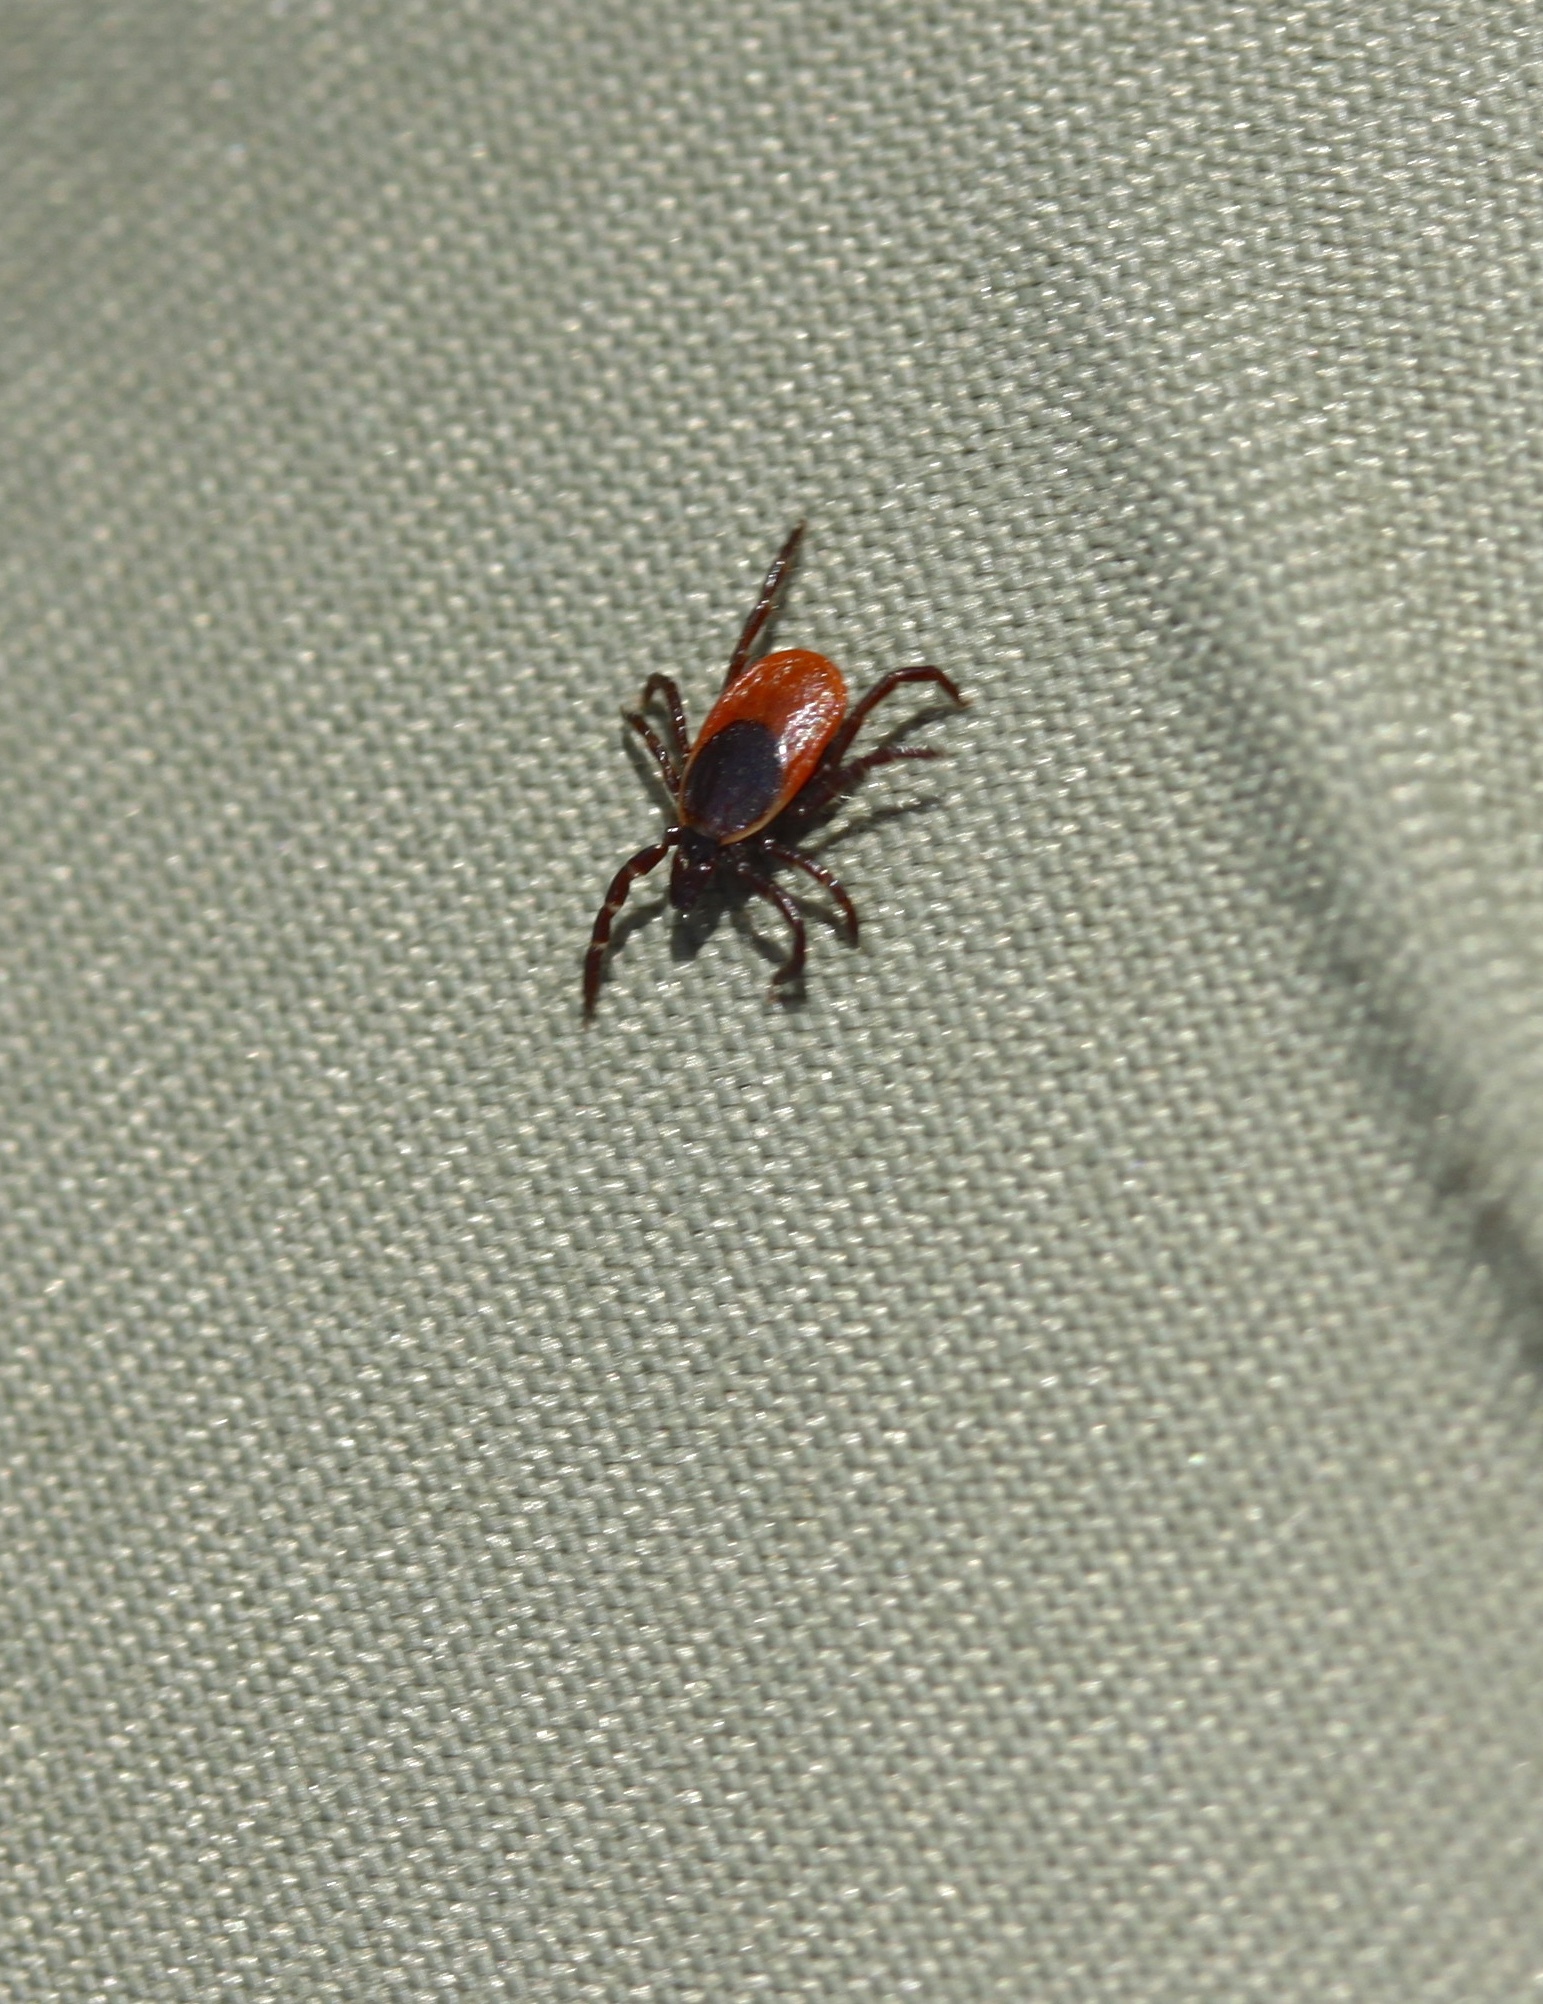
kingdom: Animalia
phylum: Arthropoda
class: Arachnida
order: Ixodida
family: Ixodidae
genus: Ixodes
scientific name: Ixodes scapularis
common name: Black legged tick
